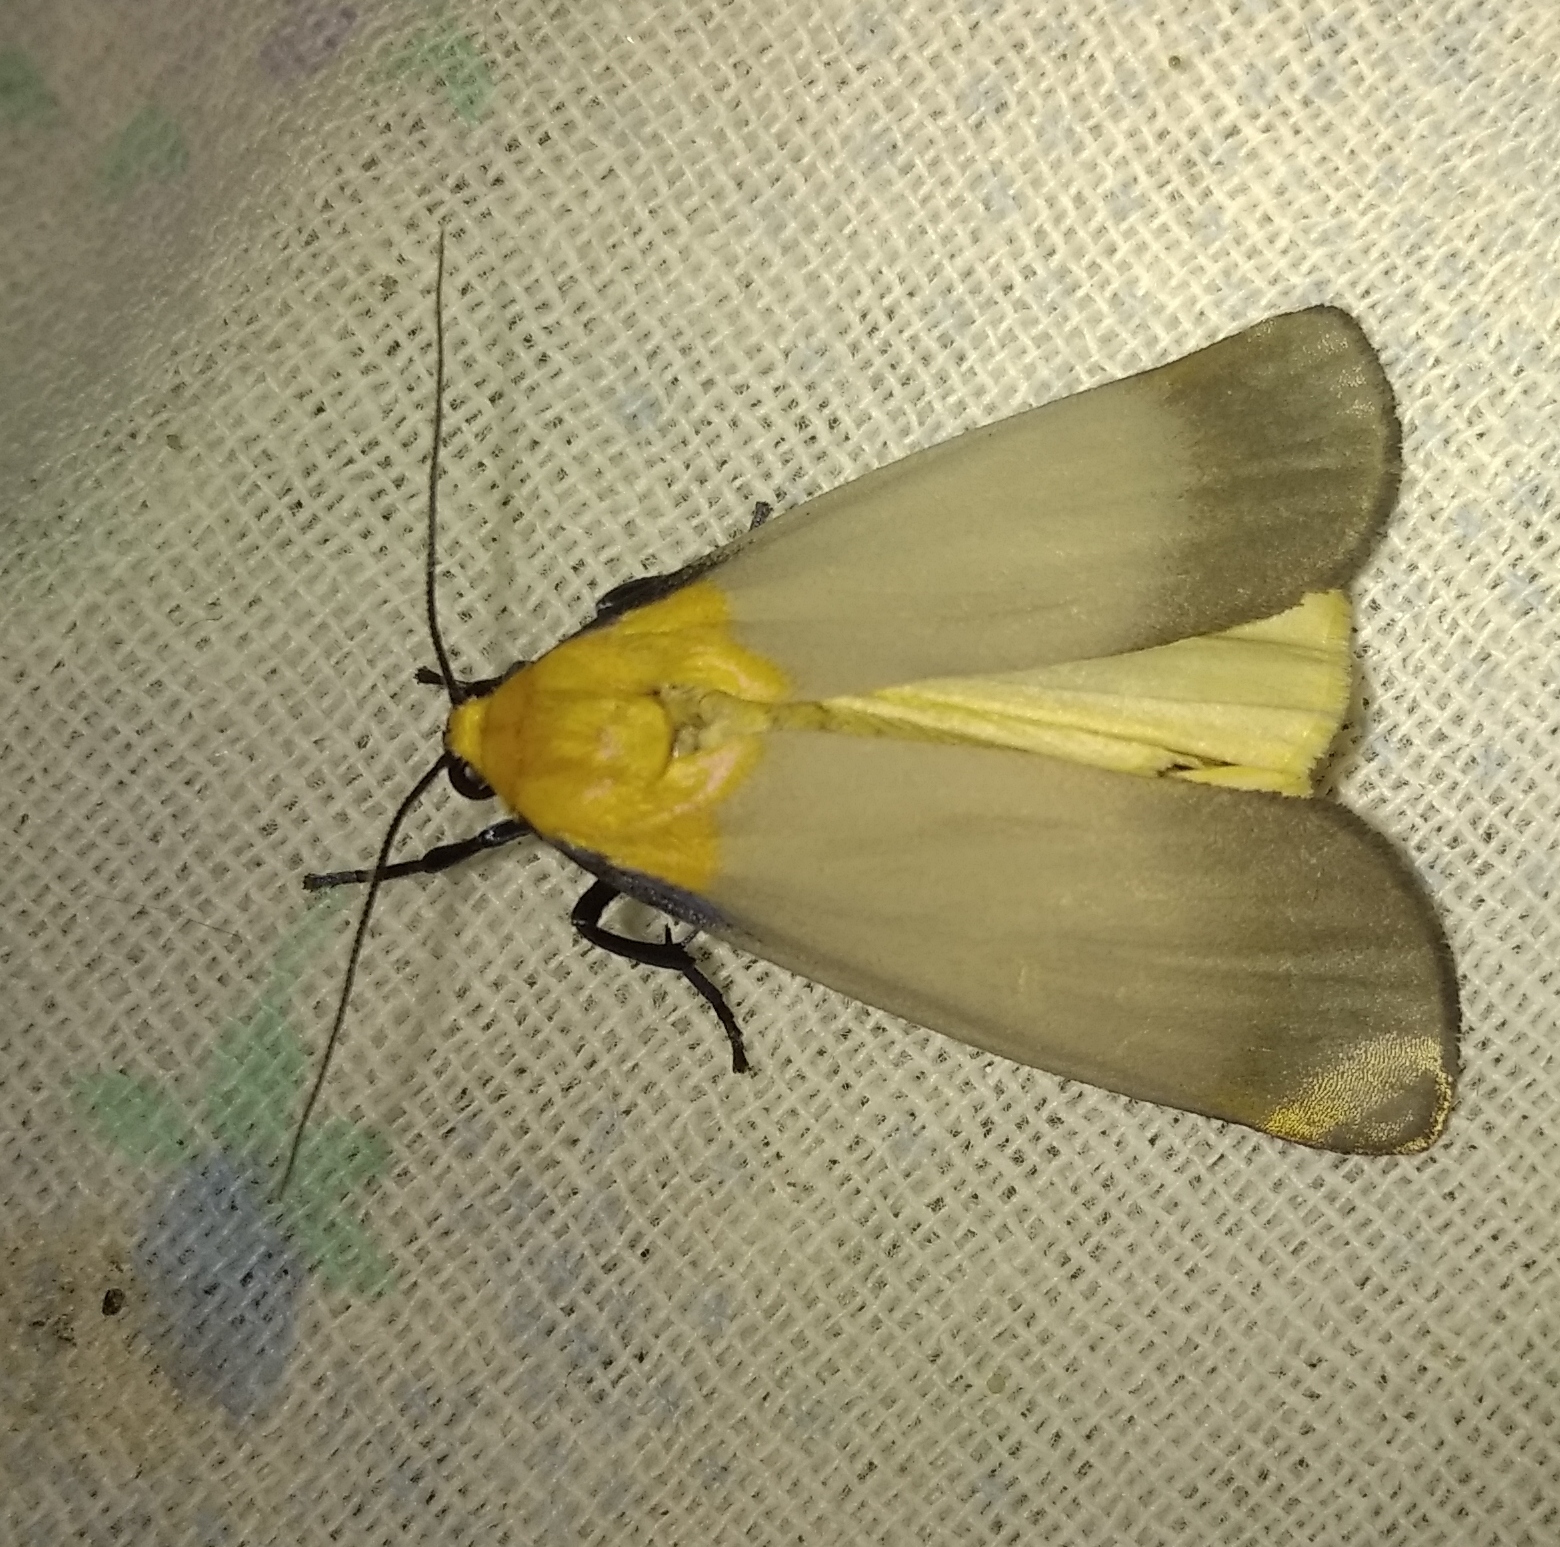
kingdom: Animalia
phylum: Arthropoda
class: Insecta
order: Lepidoptera
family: Erebidae
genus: Lithosia
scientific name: Lithosia quadra
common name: Four-spotted footman
